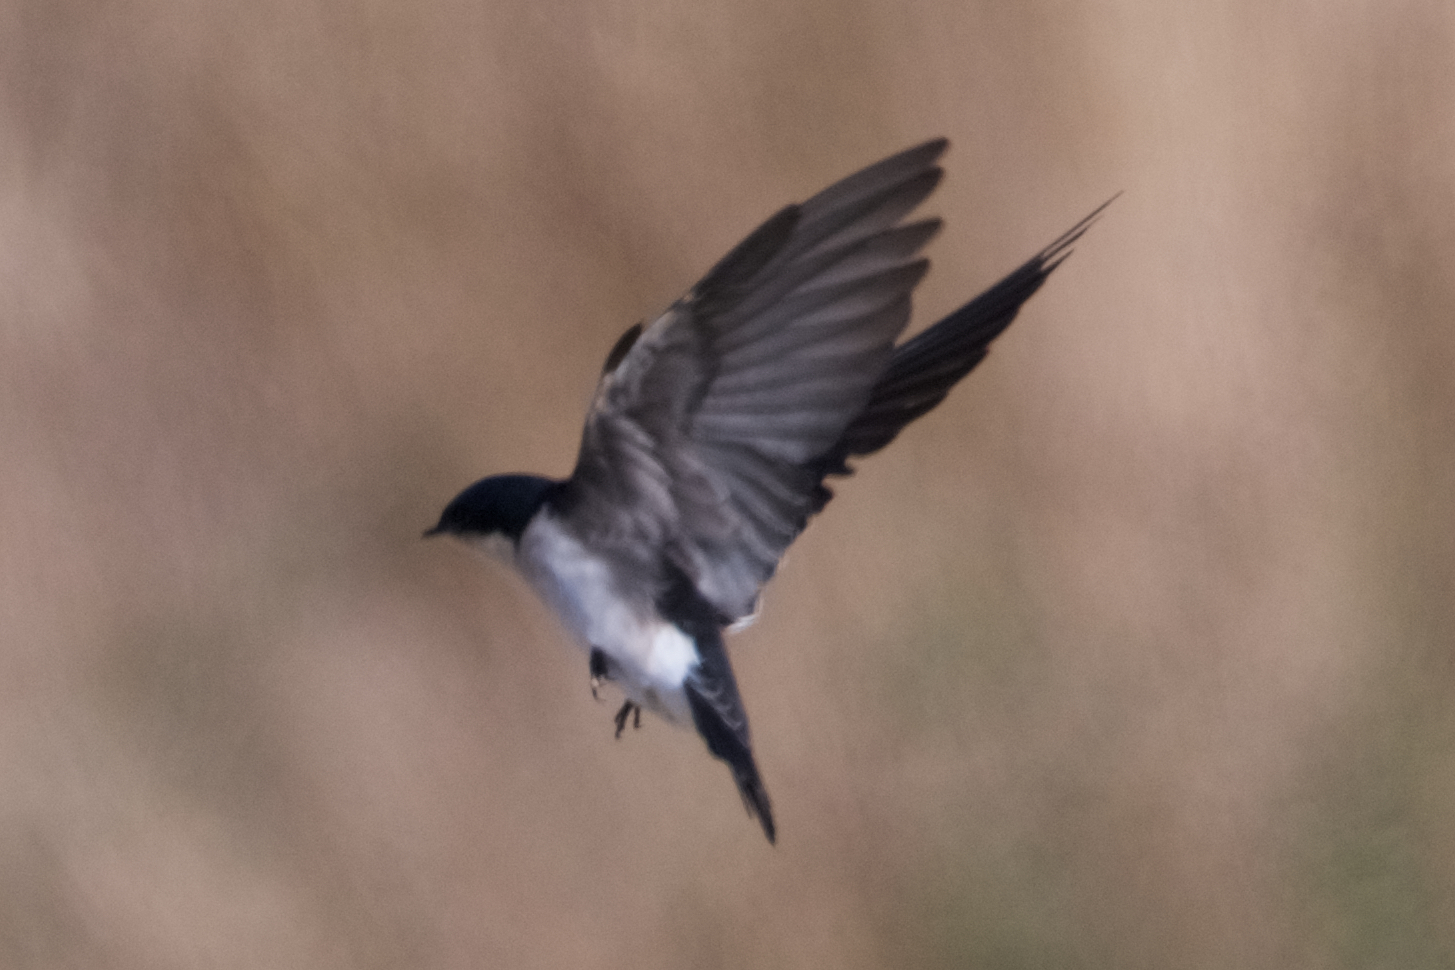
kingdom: Animalia
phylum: Chordata
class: Aves
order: Passeriformes
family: Hirundinidae
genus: Tachycineta
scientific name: Tachycineta bicolor
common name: Tree swallow
